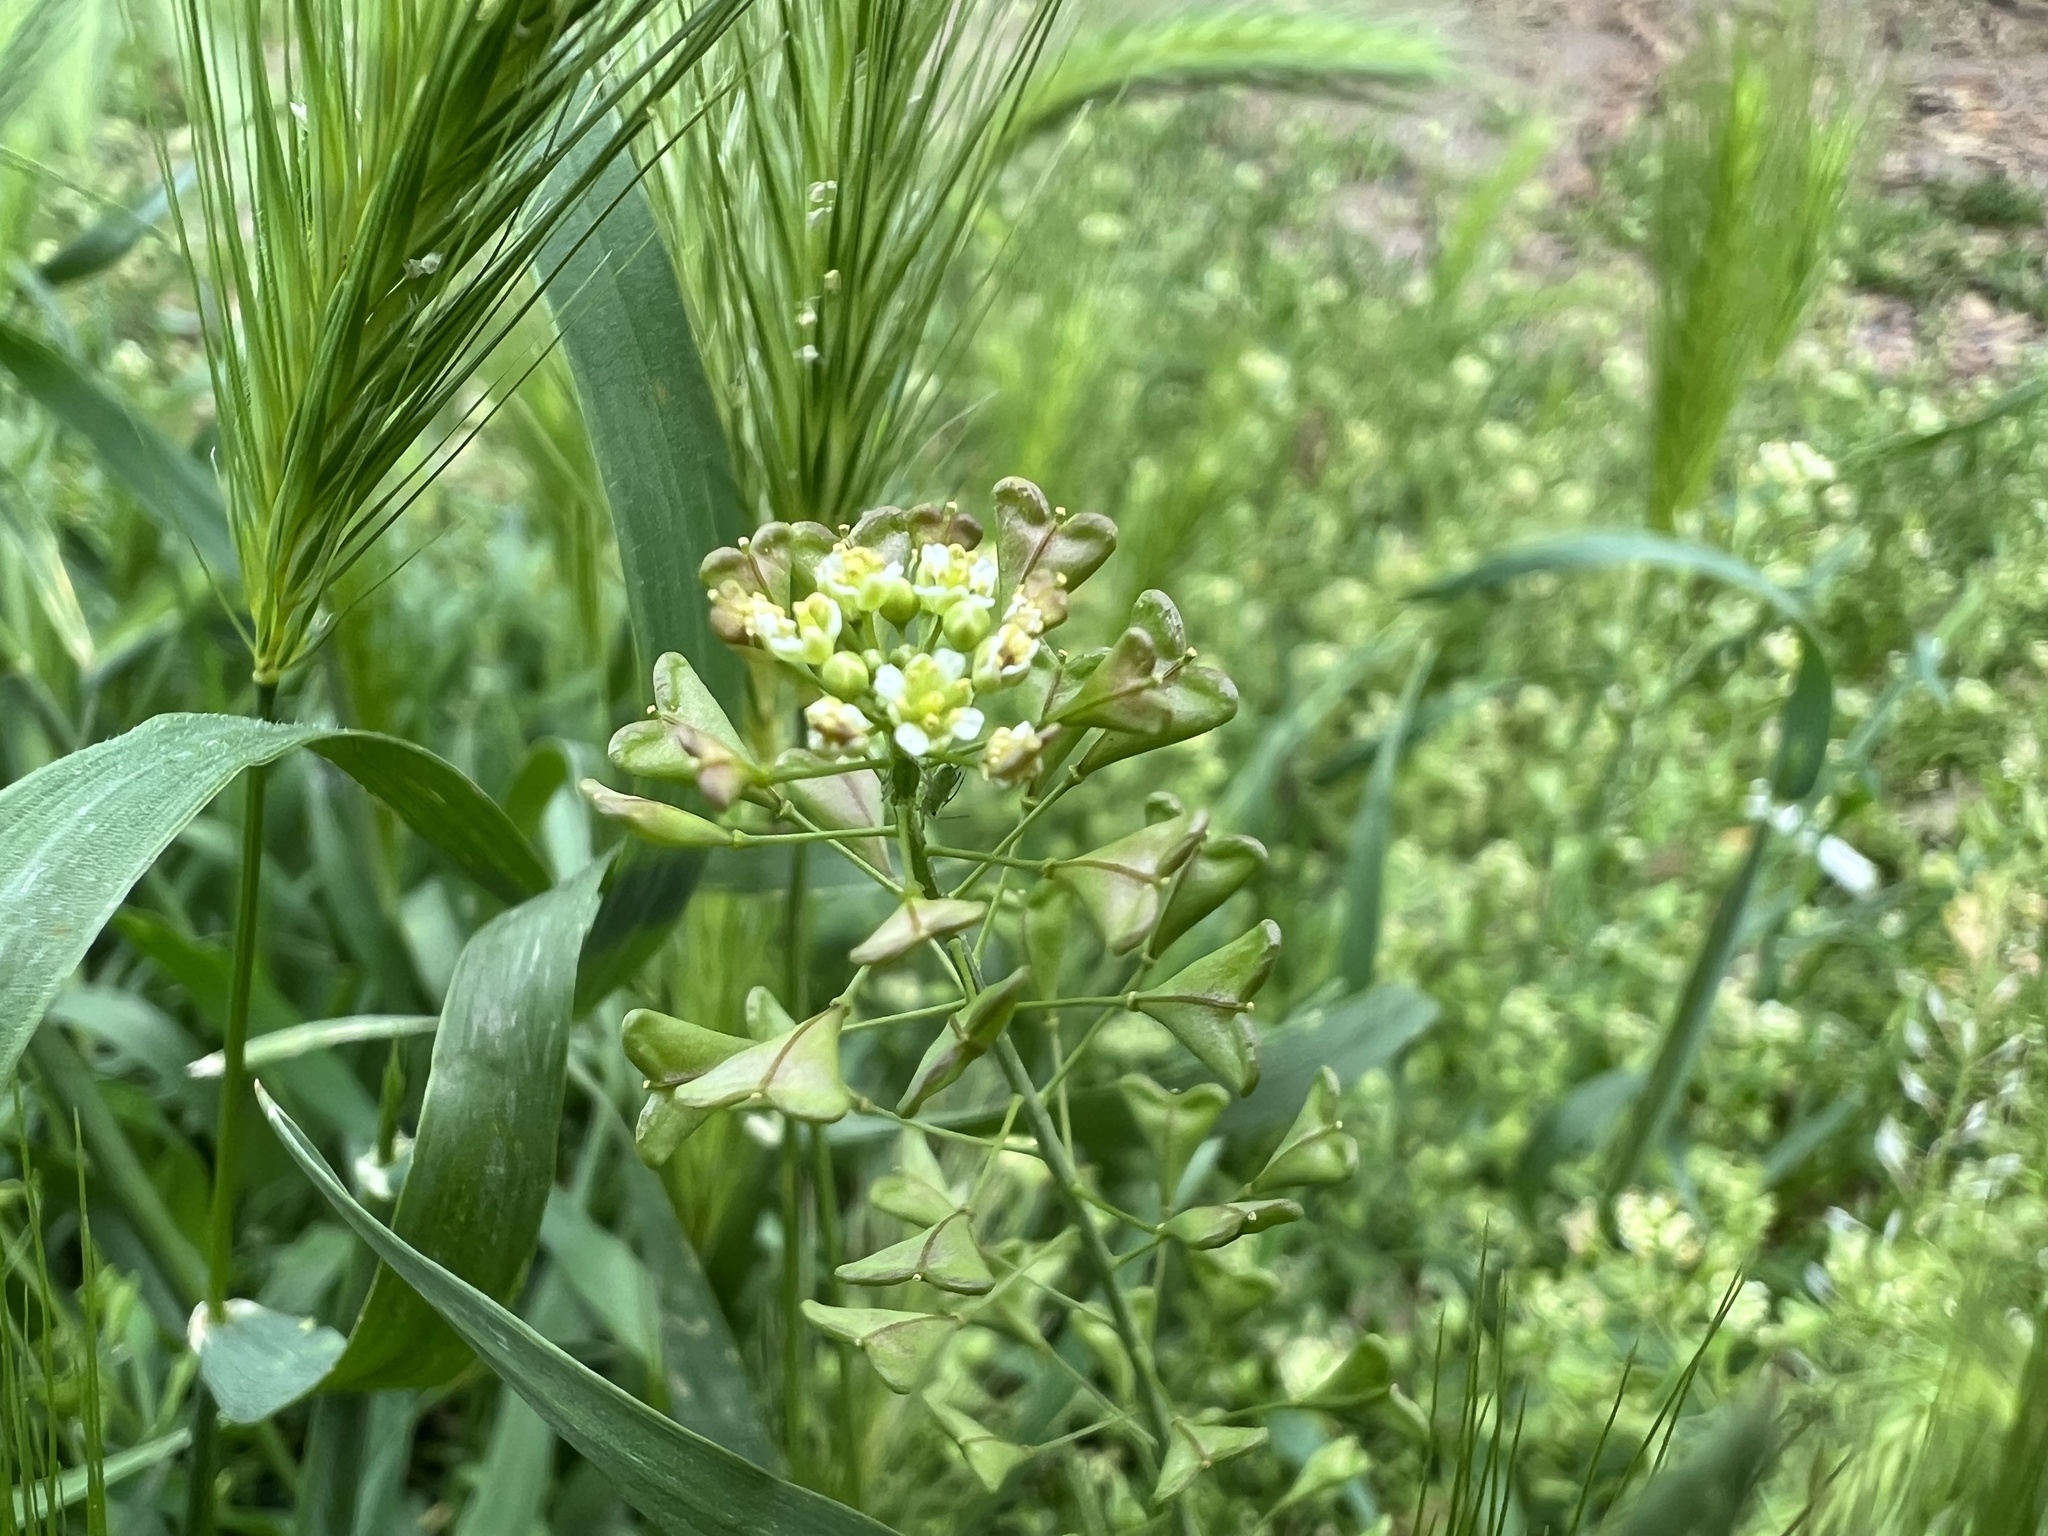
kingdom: Plantae
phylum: Tracheophyta
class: Magnoliopsida
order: Brassicales
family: Brassicaceae
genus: Capsella
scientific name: Capsella bursa-pastoris
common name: Shepherd's purse
